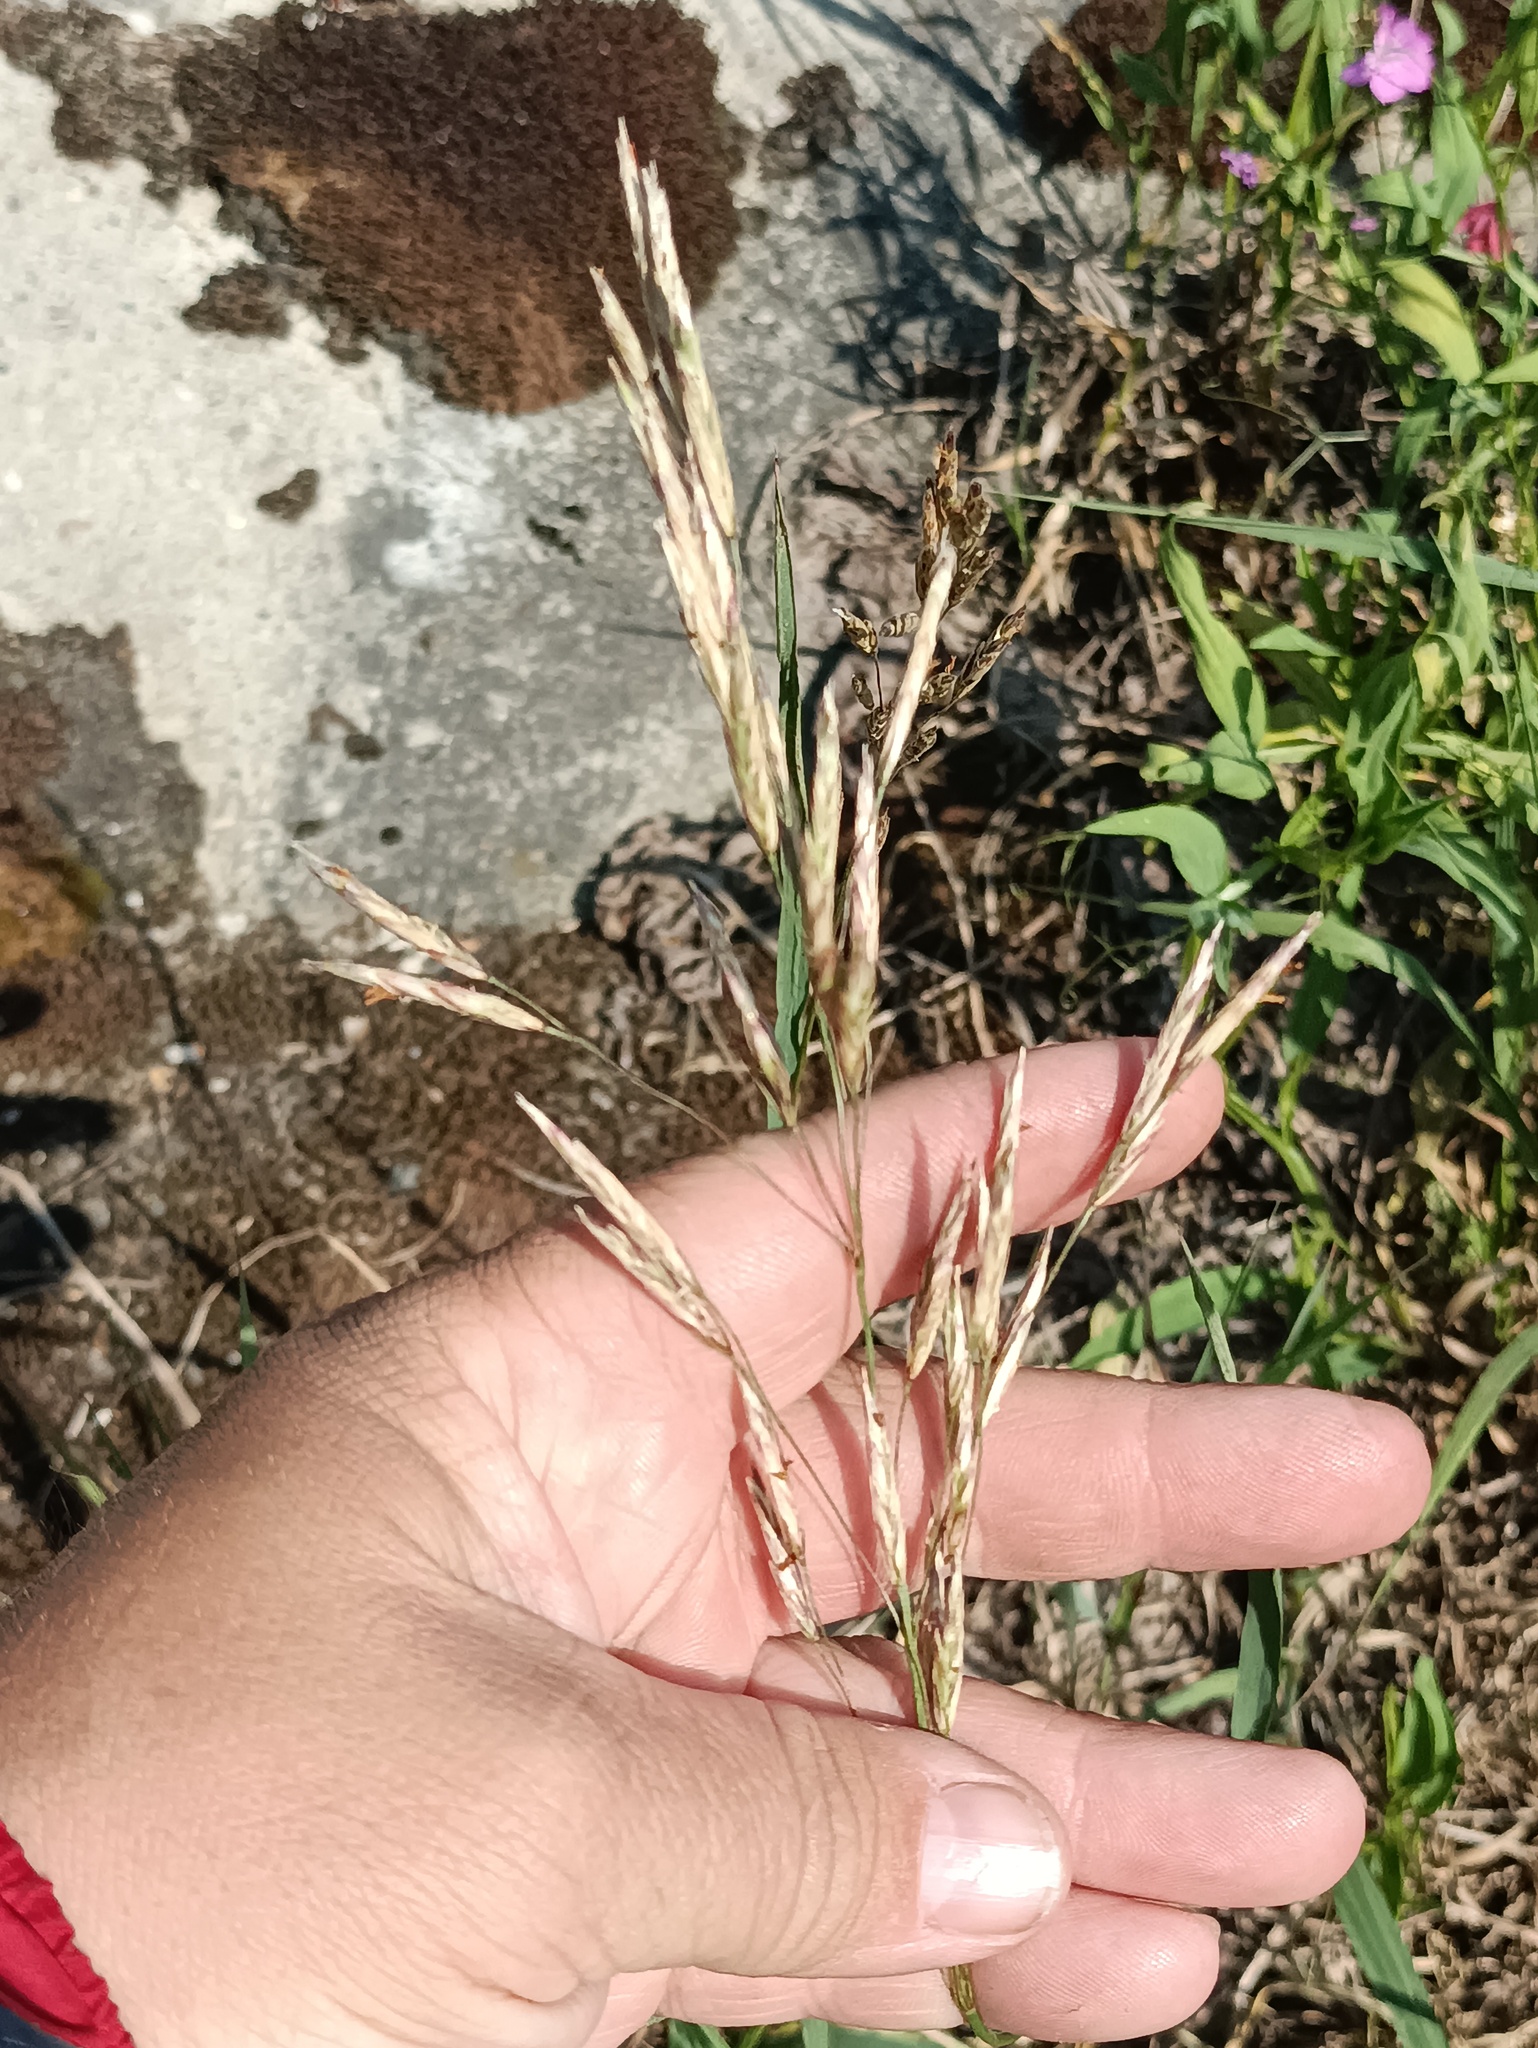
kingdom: Plantae
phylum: Tracheophyta
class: Liliopsida
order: Poales
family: Poaceae
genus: Bromus
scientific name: Bromus inermis
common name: Smooth brome
